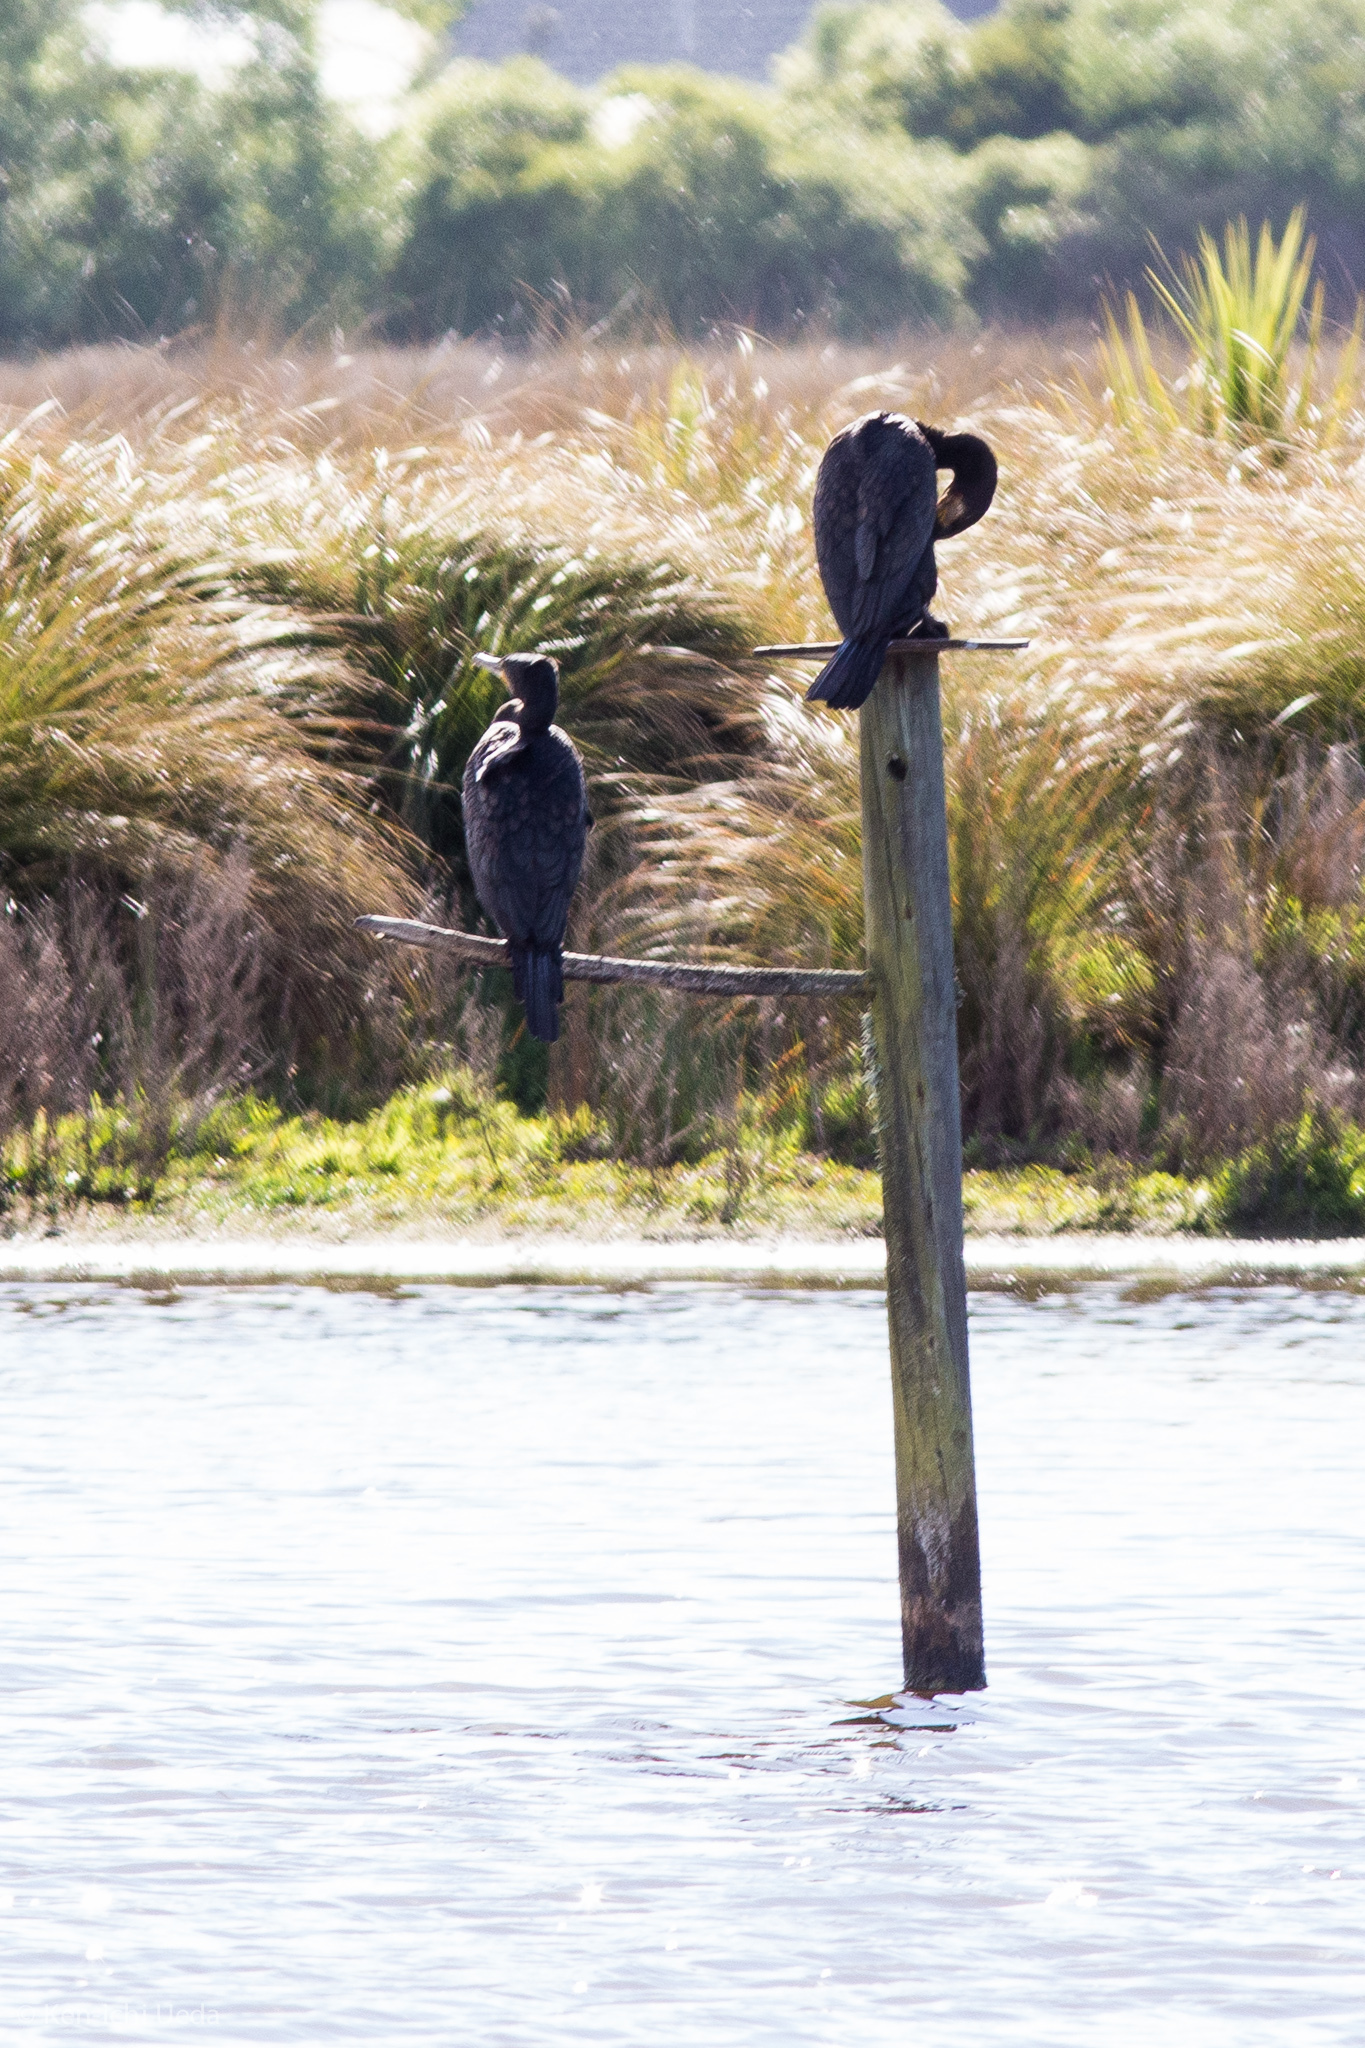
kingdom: Animalia
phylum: Chordata
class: Aves
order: Suliformes
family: Phalacrocoracidae
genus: Phalacrocorax
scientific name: Phalacrocorax carbo
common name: Great cormorant
